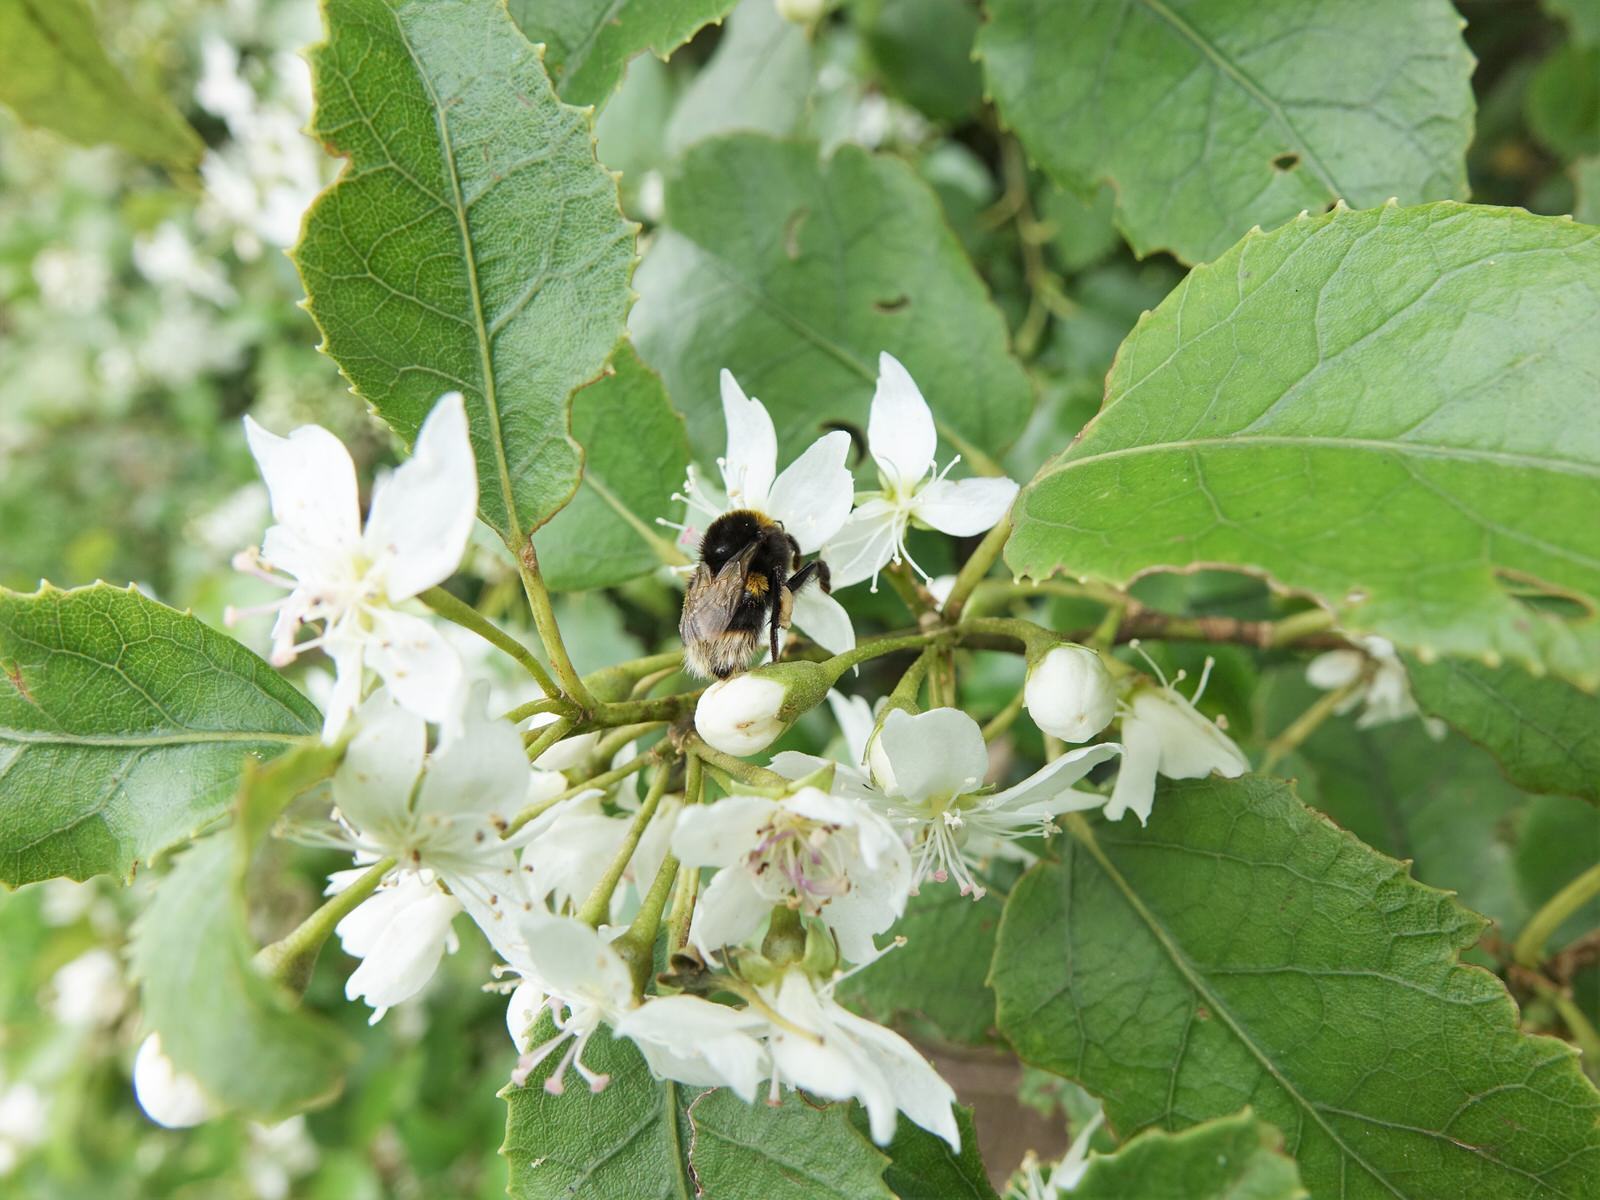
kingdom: Animalia
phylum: Arthropoda
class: Insecta
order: Hymenoptera
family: Apidae
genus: Bombus
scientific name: Bombus terrestris
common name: Buff-tailed bumblebee
